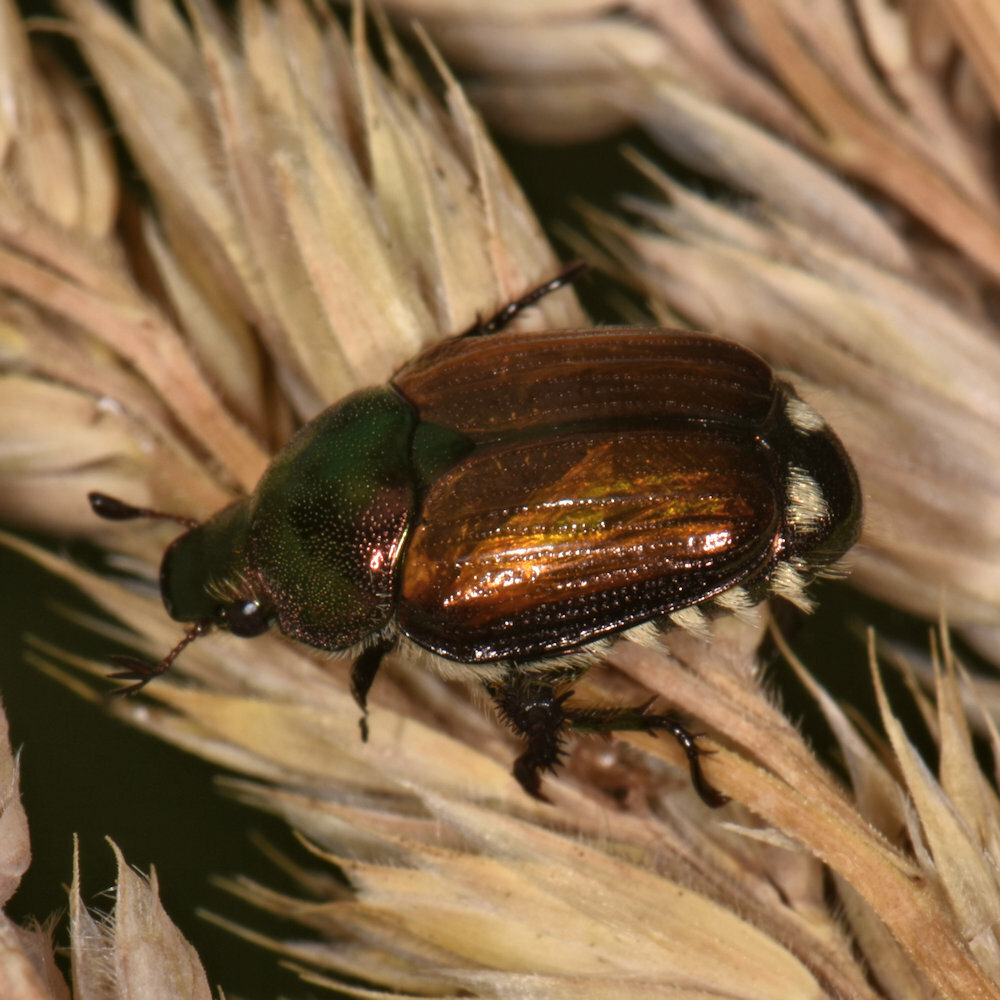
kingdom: Animalia
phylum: Arthropoda
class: Insecta
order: Coleoptera
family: Scarabaeidae
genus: Popillia
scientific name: Popillia japonica
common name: Japanese beetle
